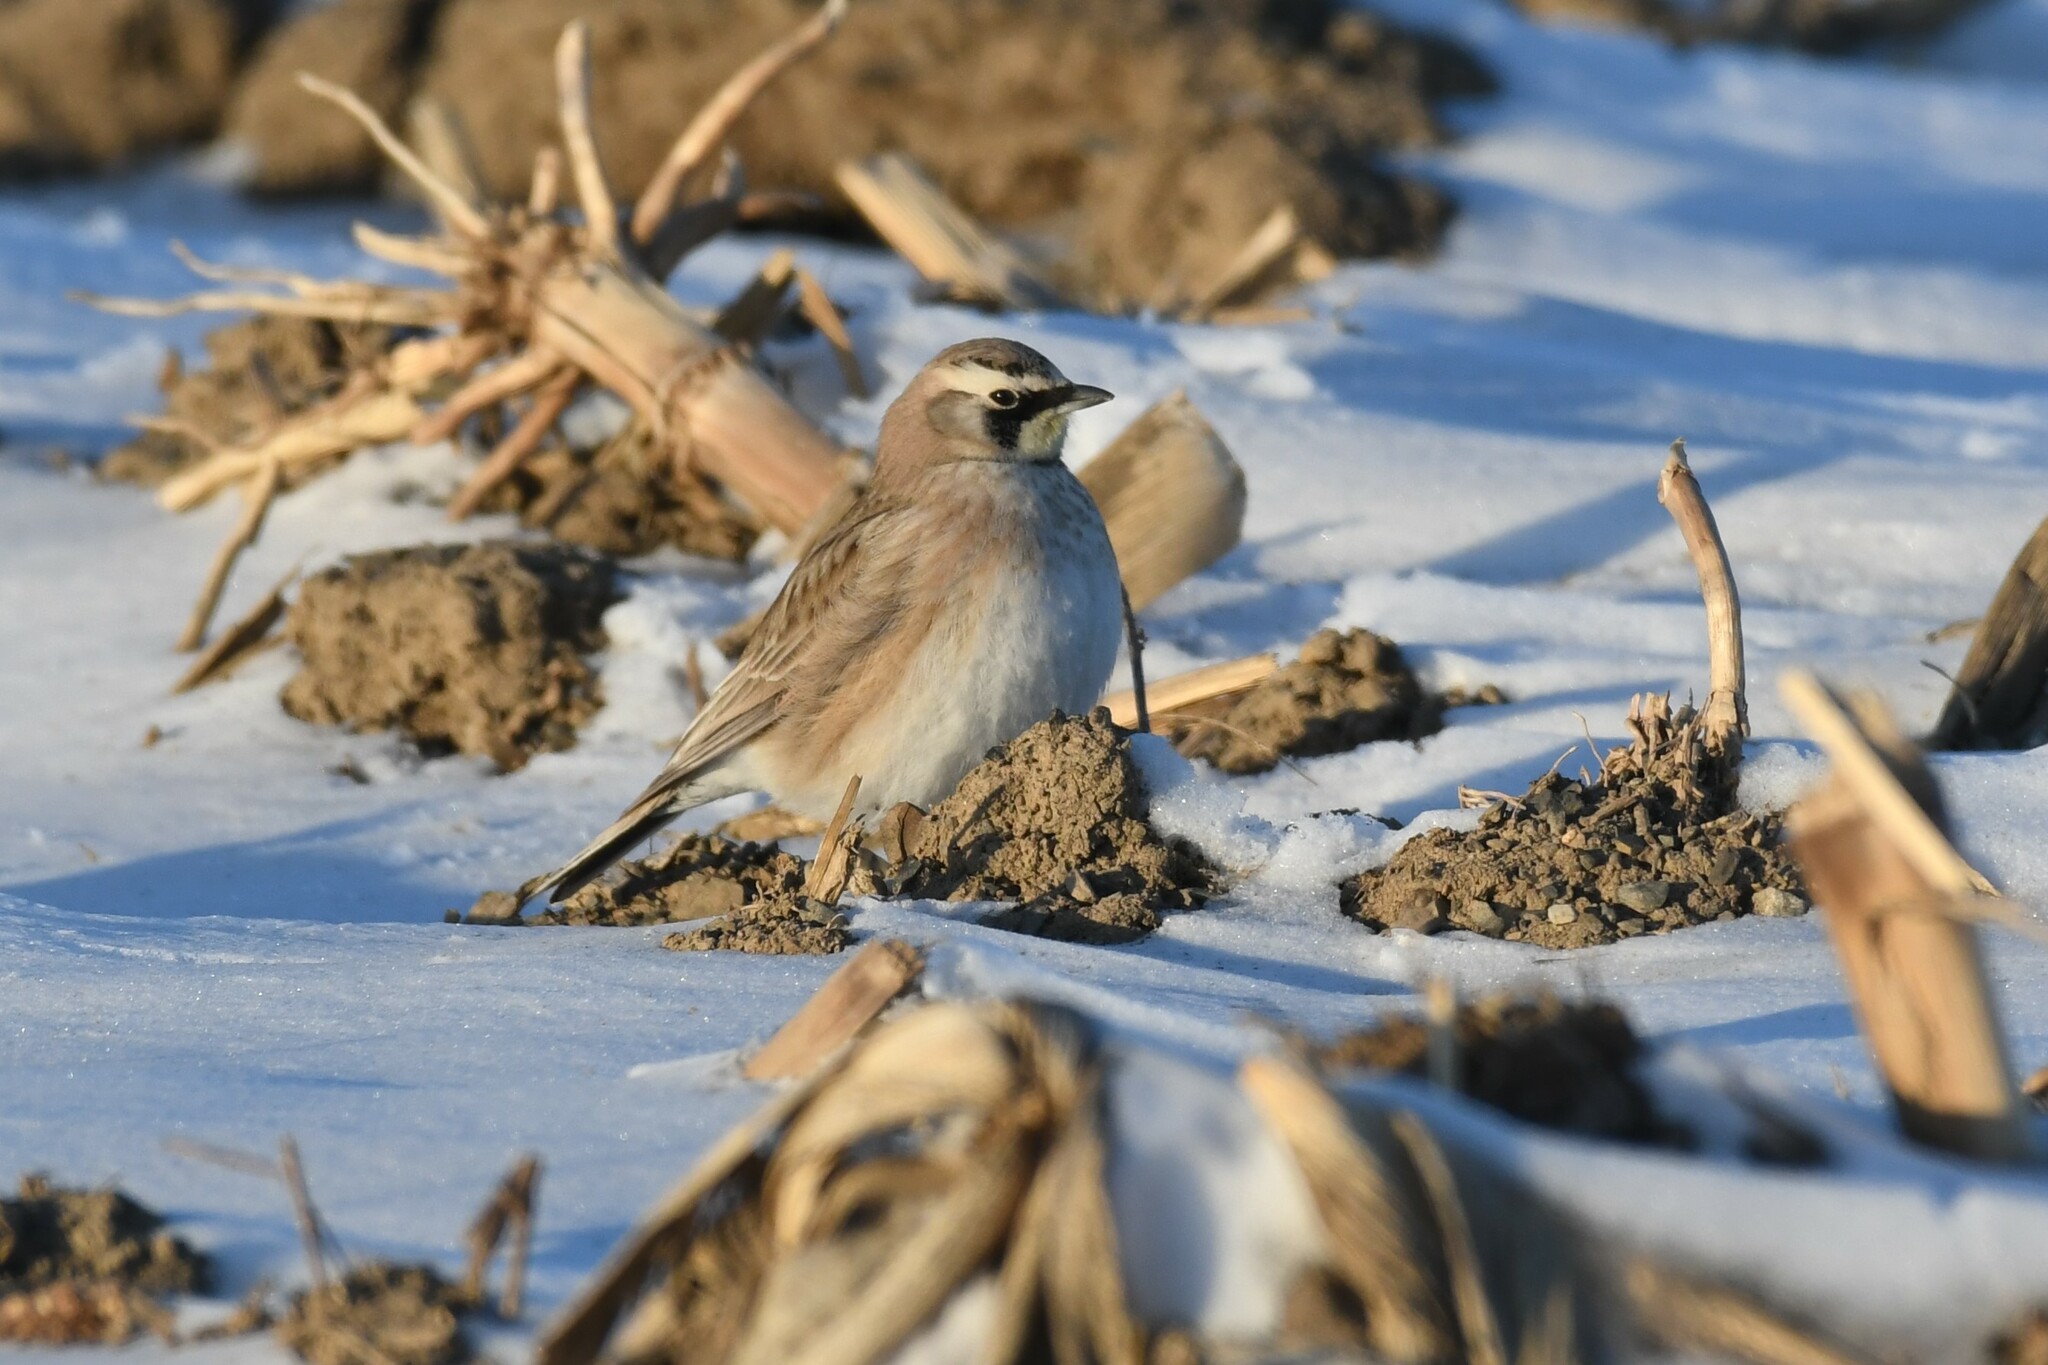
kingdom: Animalia
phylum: Chordata
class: Aves
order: Passeriformes
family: Alaudidae
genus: Eremophila
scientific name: Eremophila alpestris
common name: Horned lark
